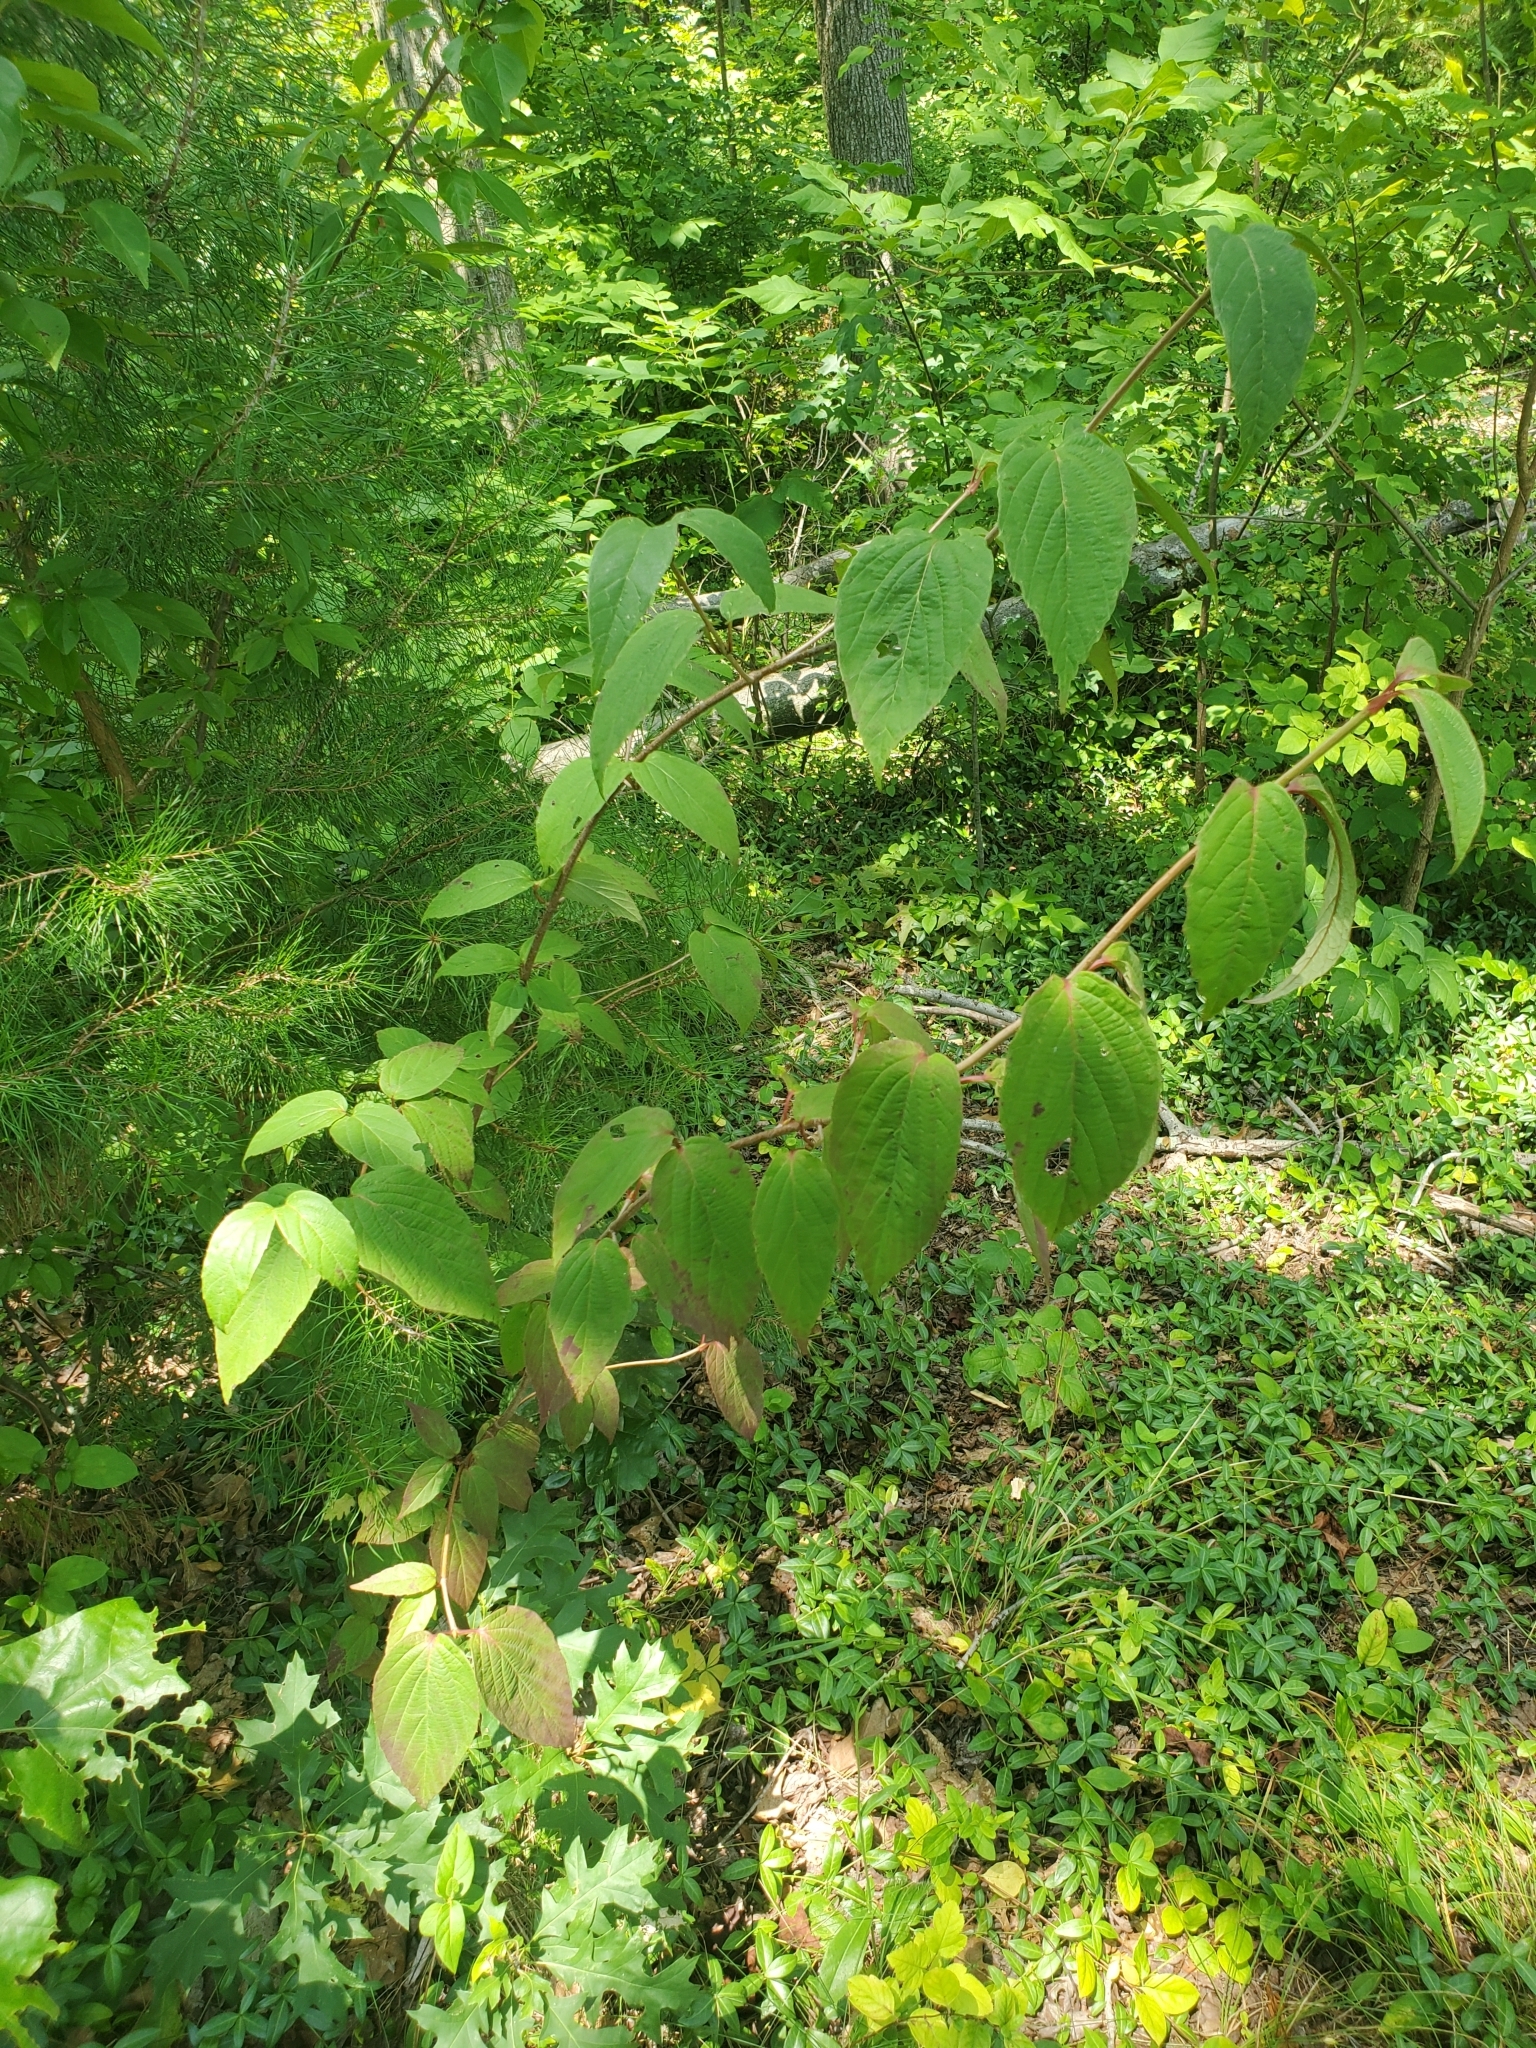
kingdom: Plantae
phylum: Tracheophyta
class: Magnoliopsida
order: Dipsacales
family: Viburnaceae
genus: Viburnum
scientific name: Viburnum setigerum
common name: Tea viburnum
